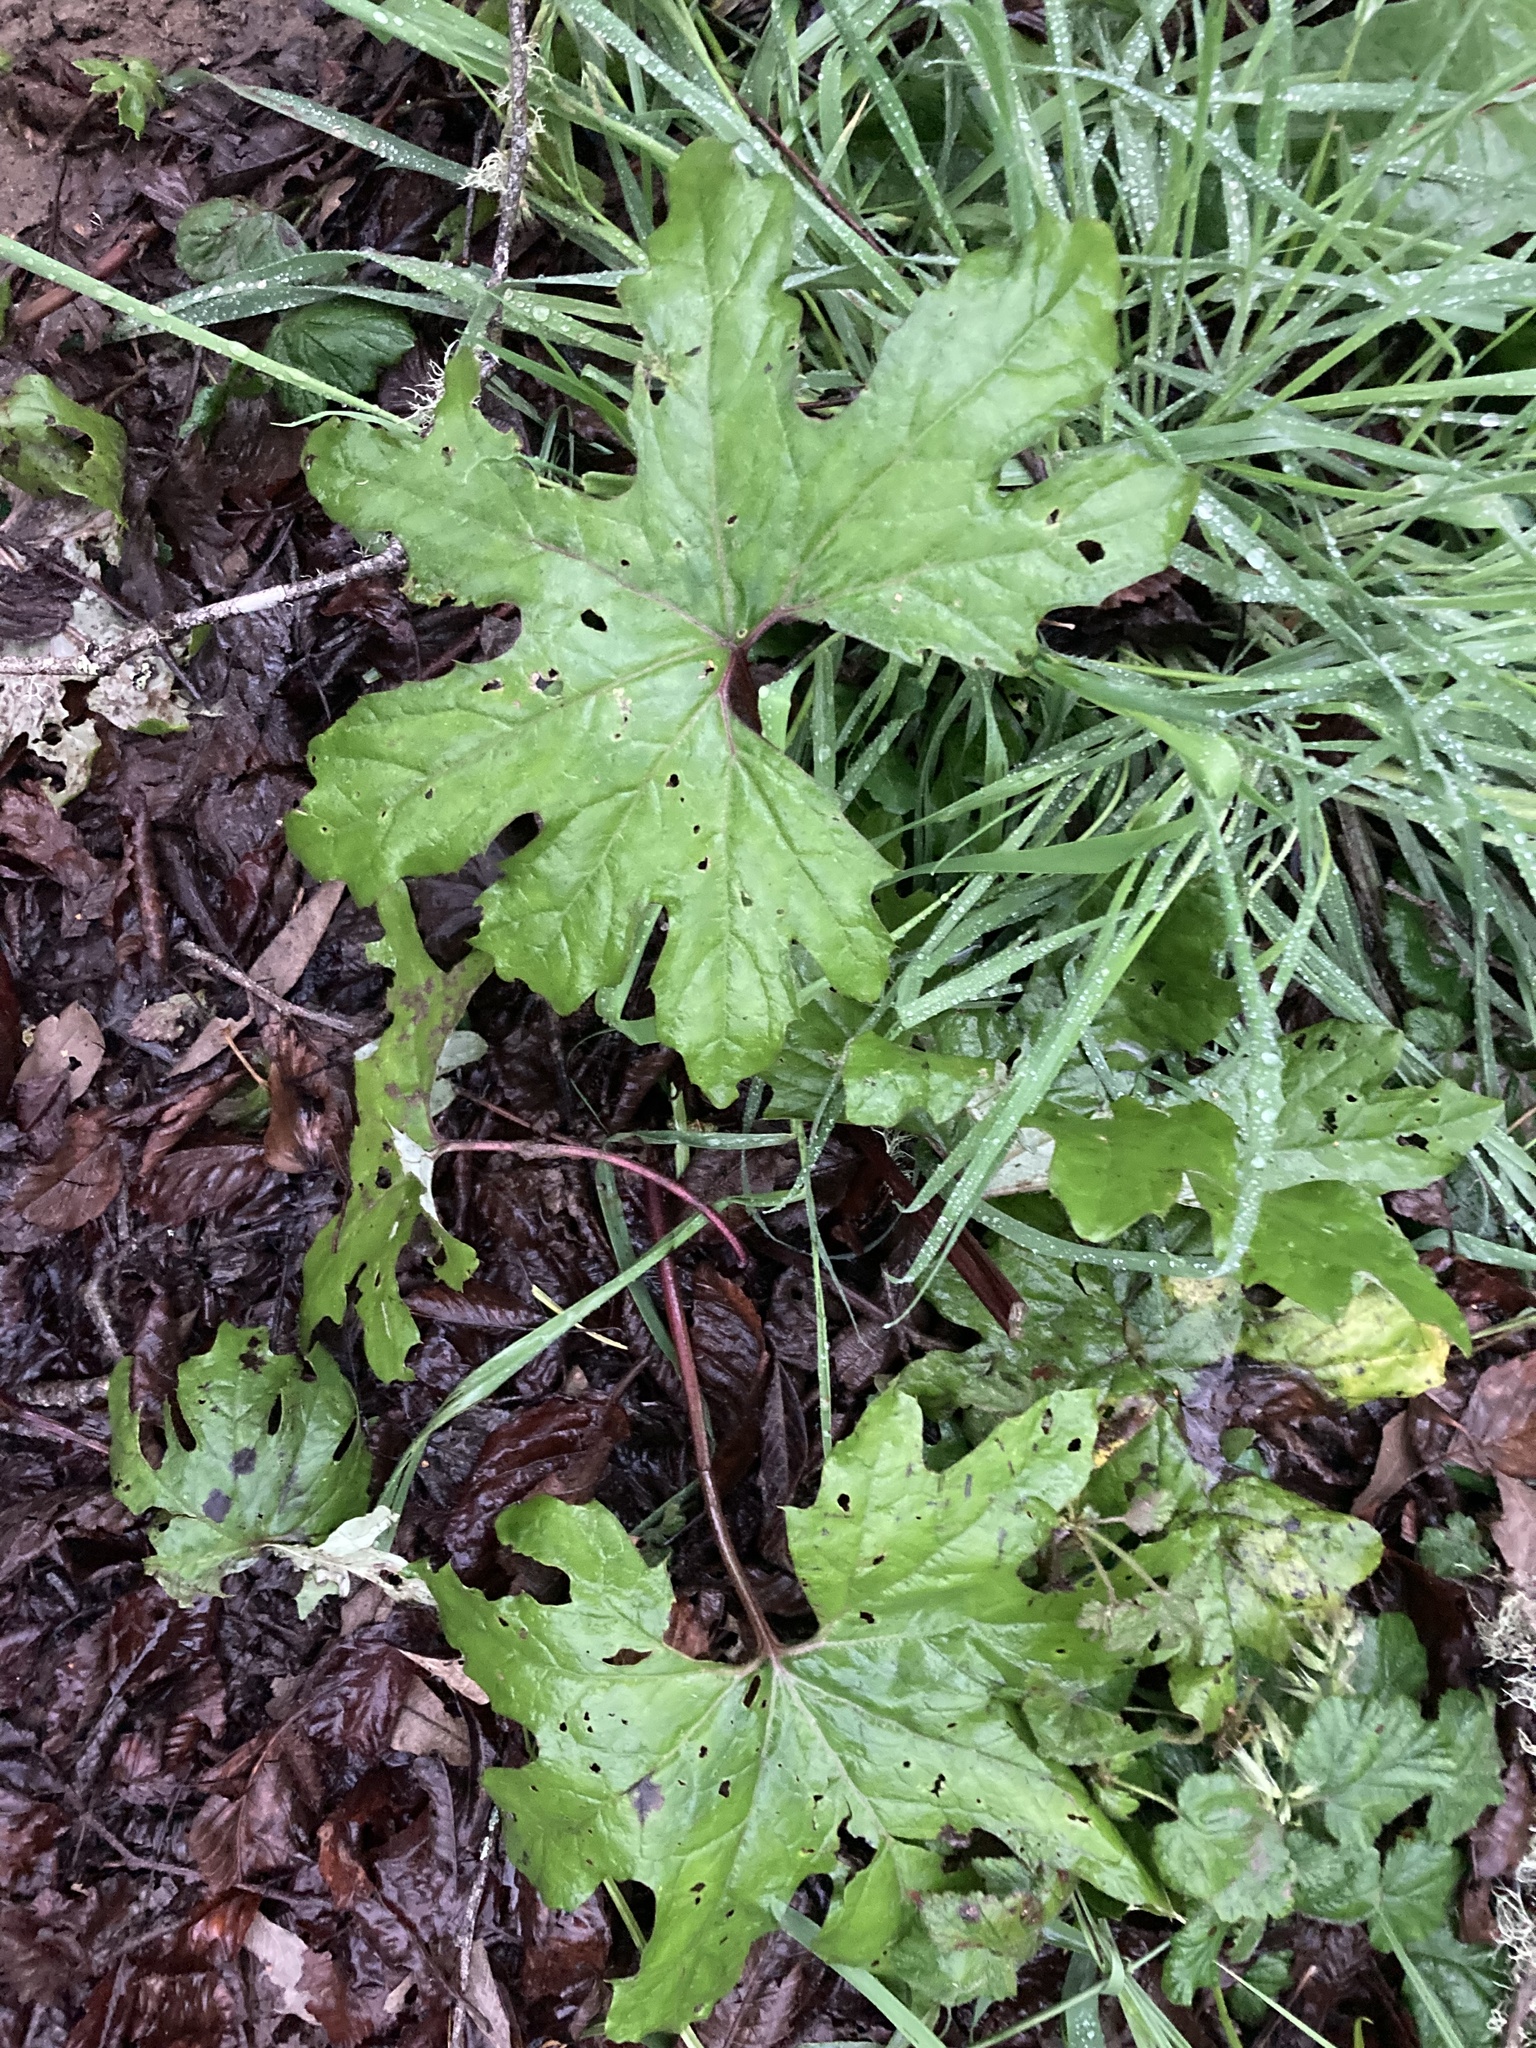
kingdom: Plantae
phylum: Tracheophyta
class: Magnoliopsida
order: Asterales
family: Asteraceae
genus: Petasites
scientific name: Petasites frigidus
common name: Arctic butterbur
